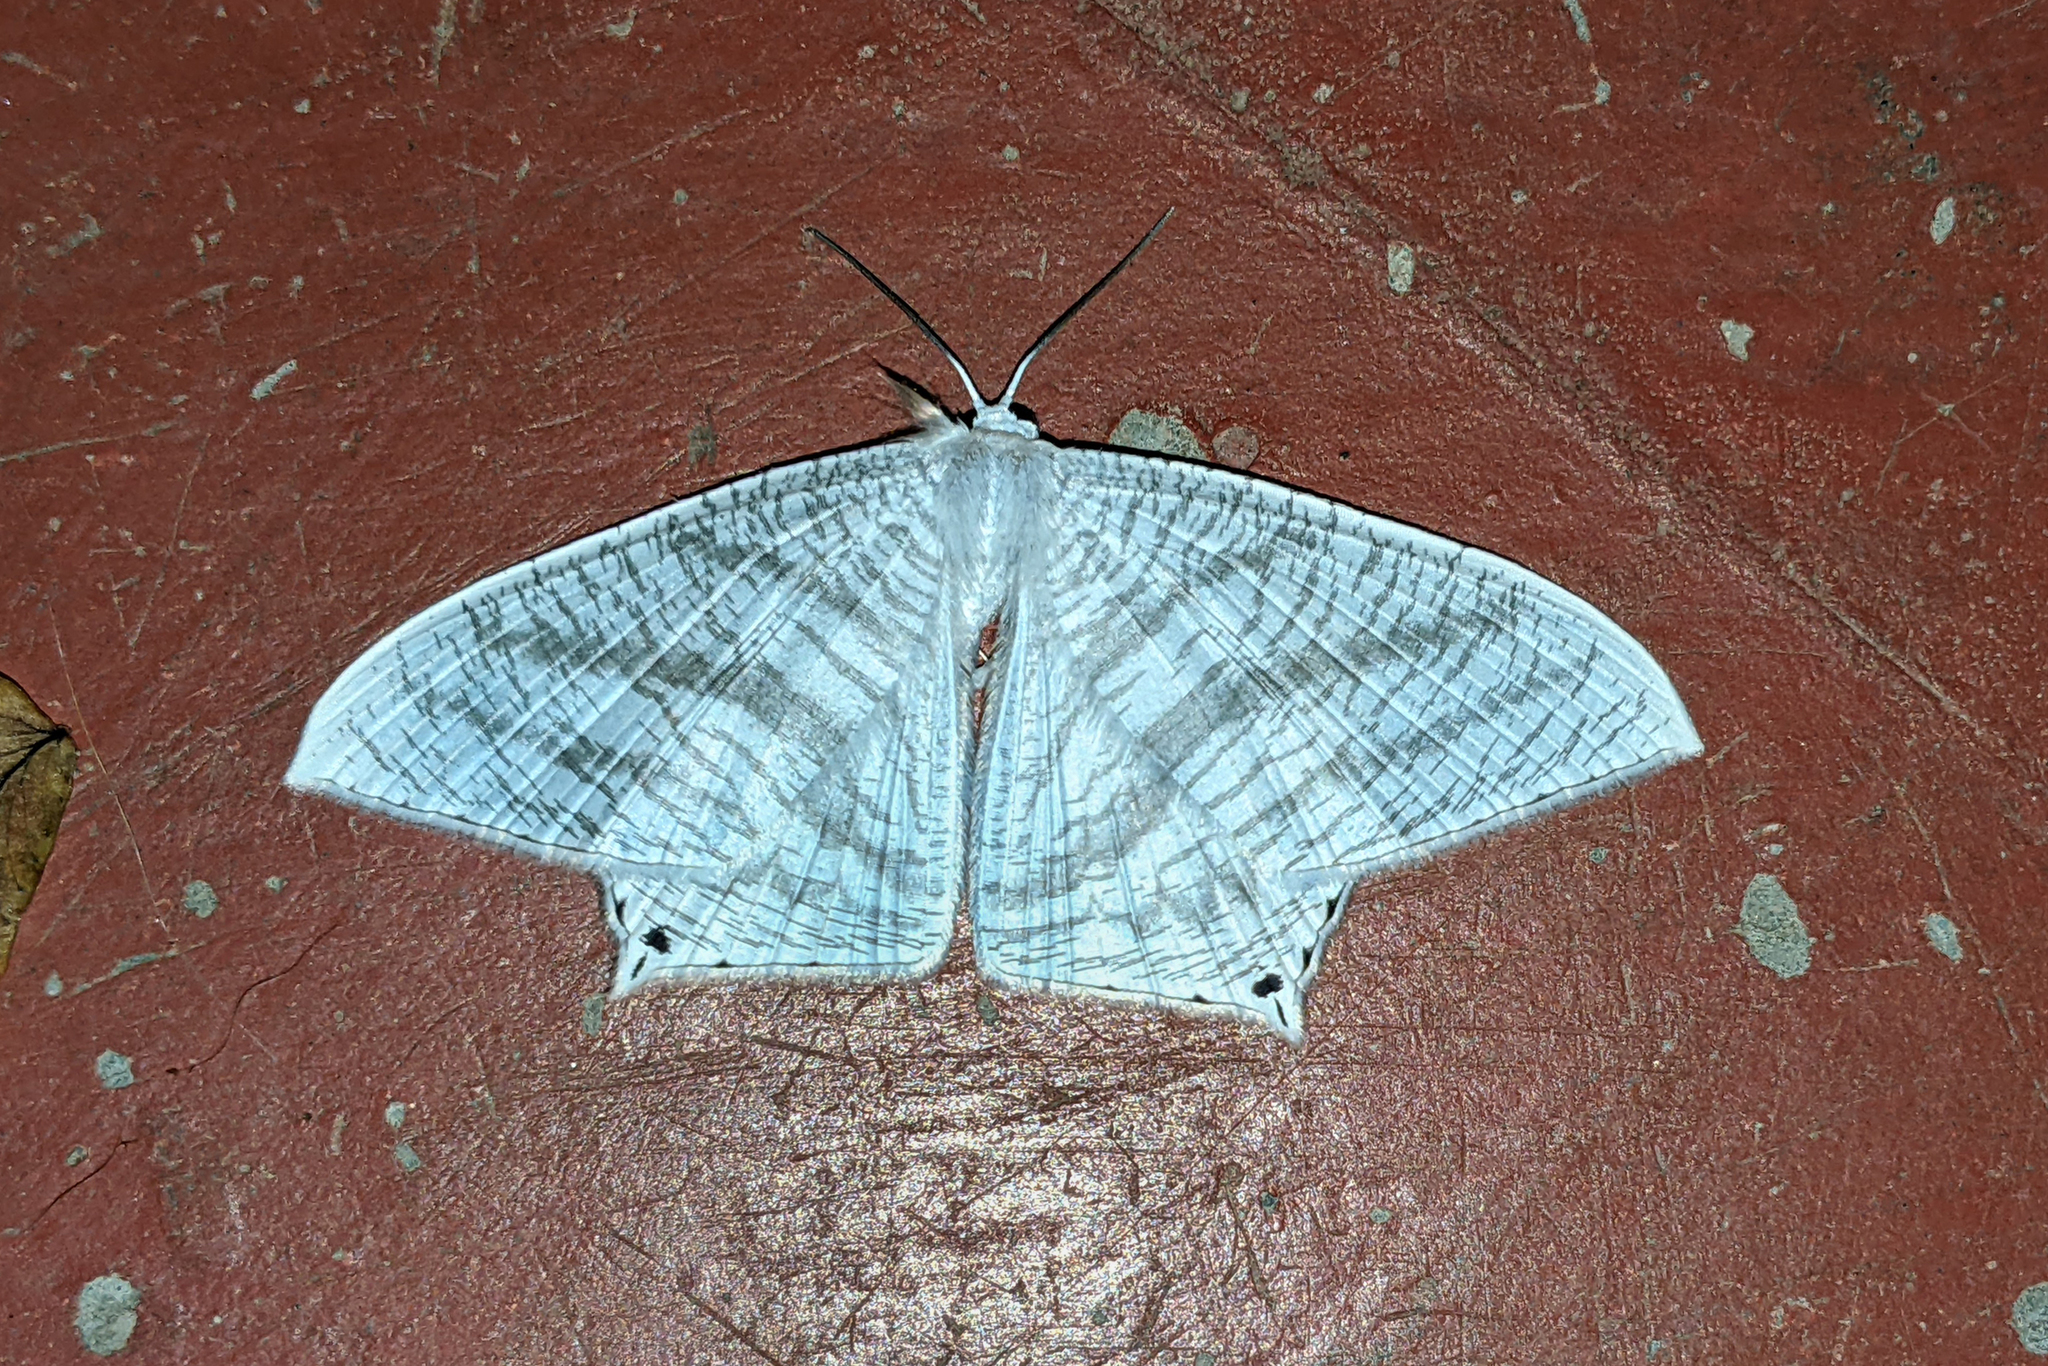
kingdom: Animalia
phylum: Arthropoda
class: Insecta
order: Lepidoptera
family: Uraniidae
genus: Micronia
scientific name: Micronia aculeata
